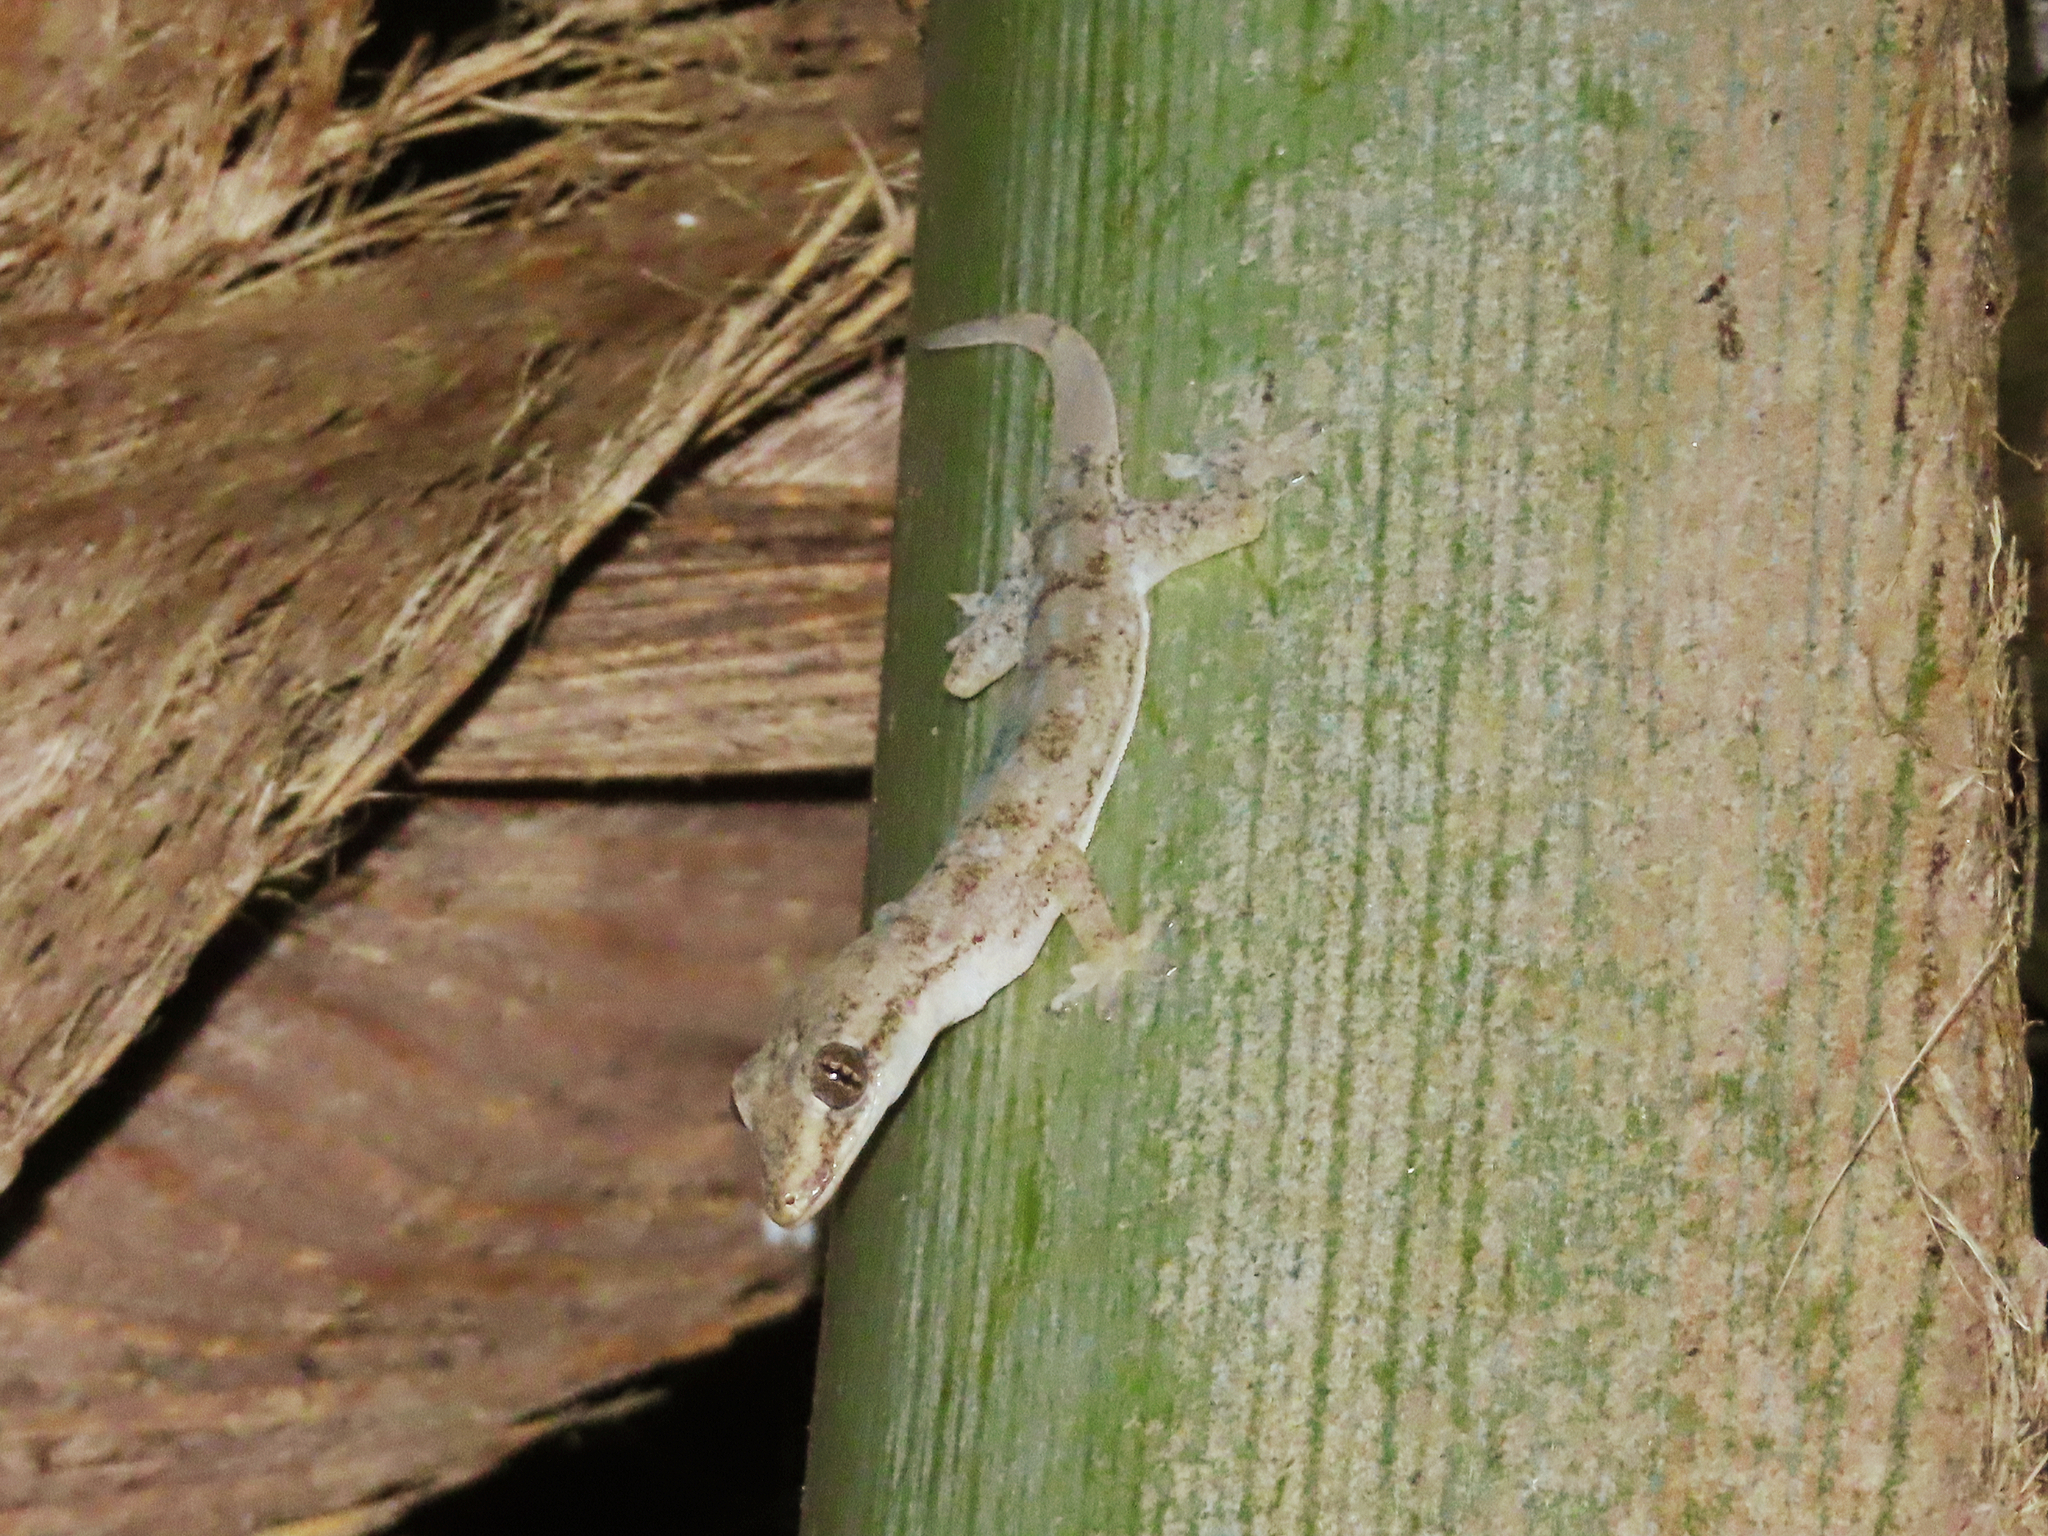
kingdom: Animalia
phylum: Chordata
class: Squamata
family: Gekkonidae
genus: Hemidactylus
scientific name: Hemidactylus frenatus
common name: Common house gecko
